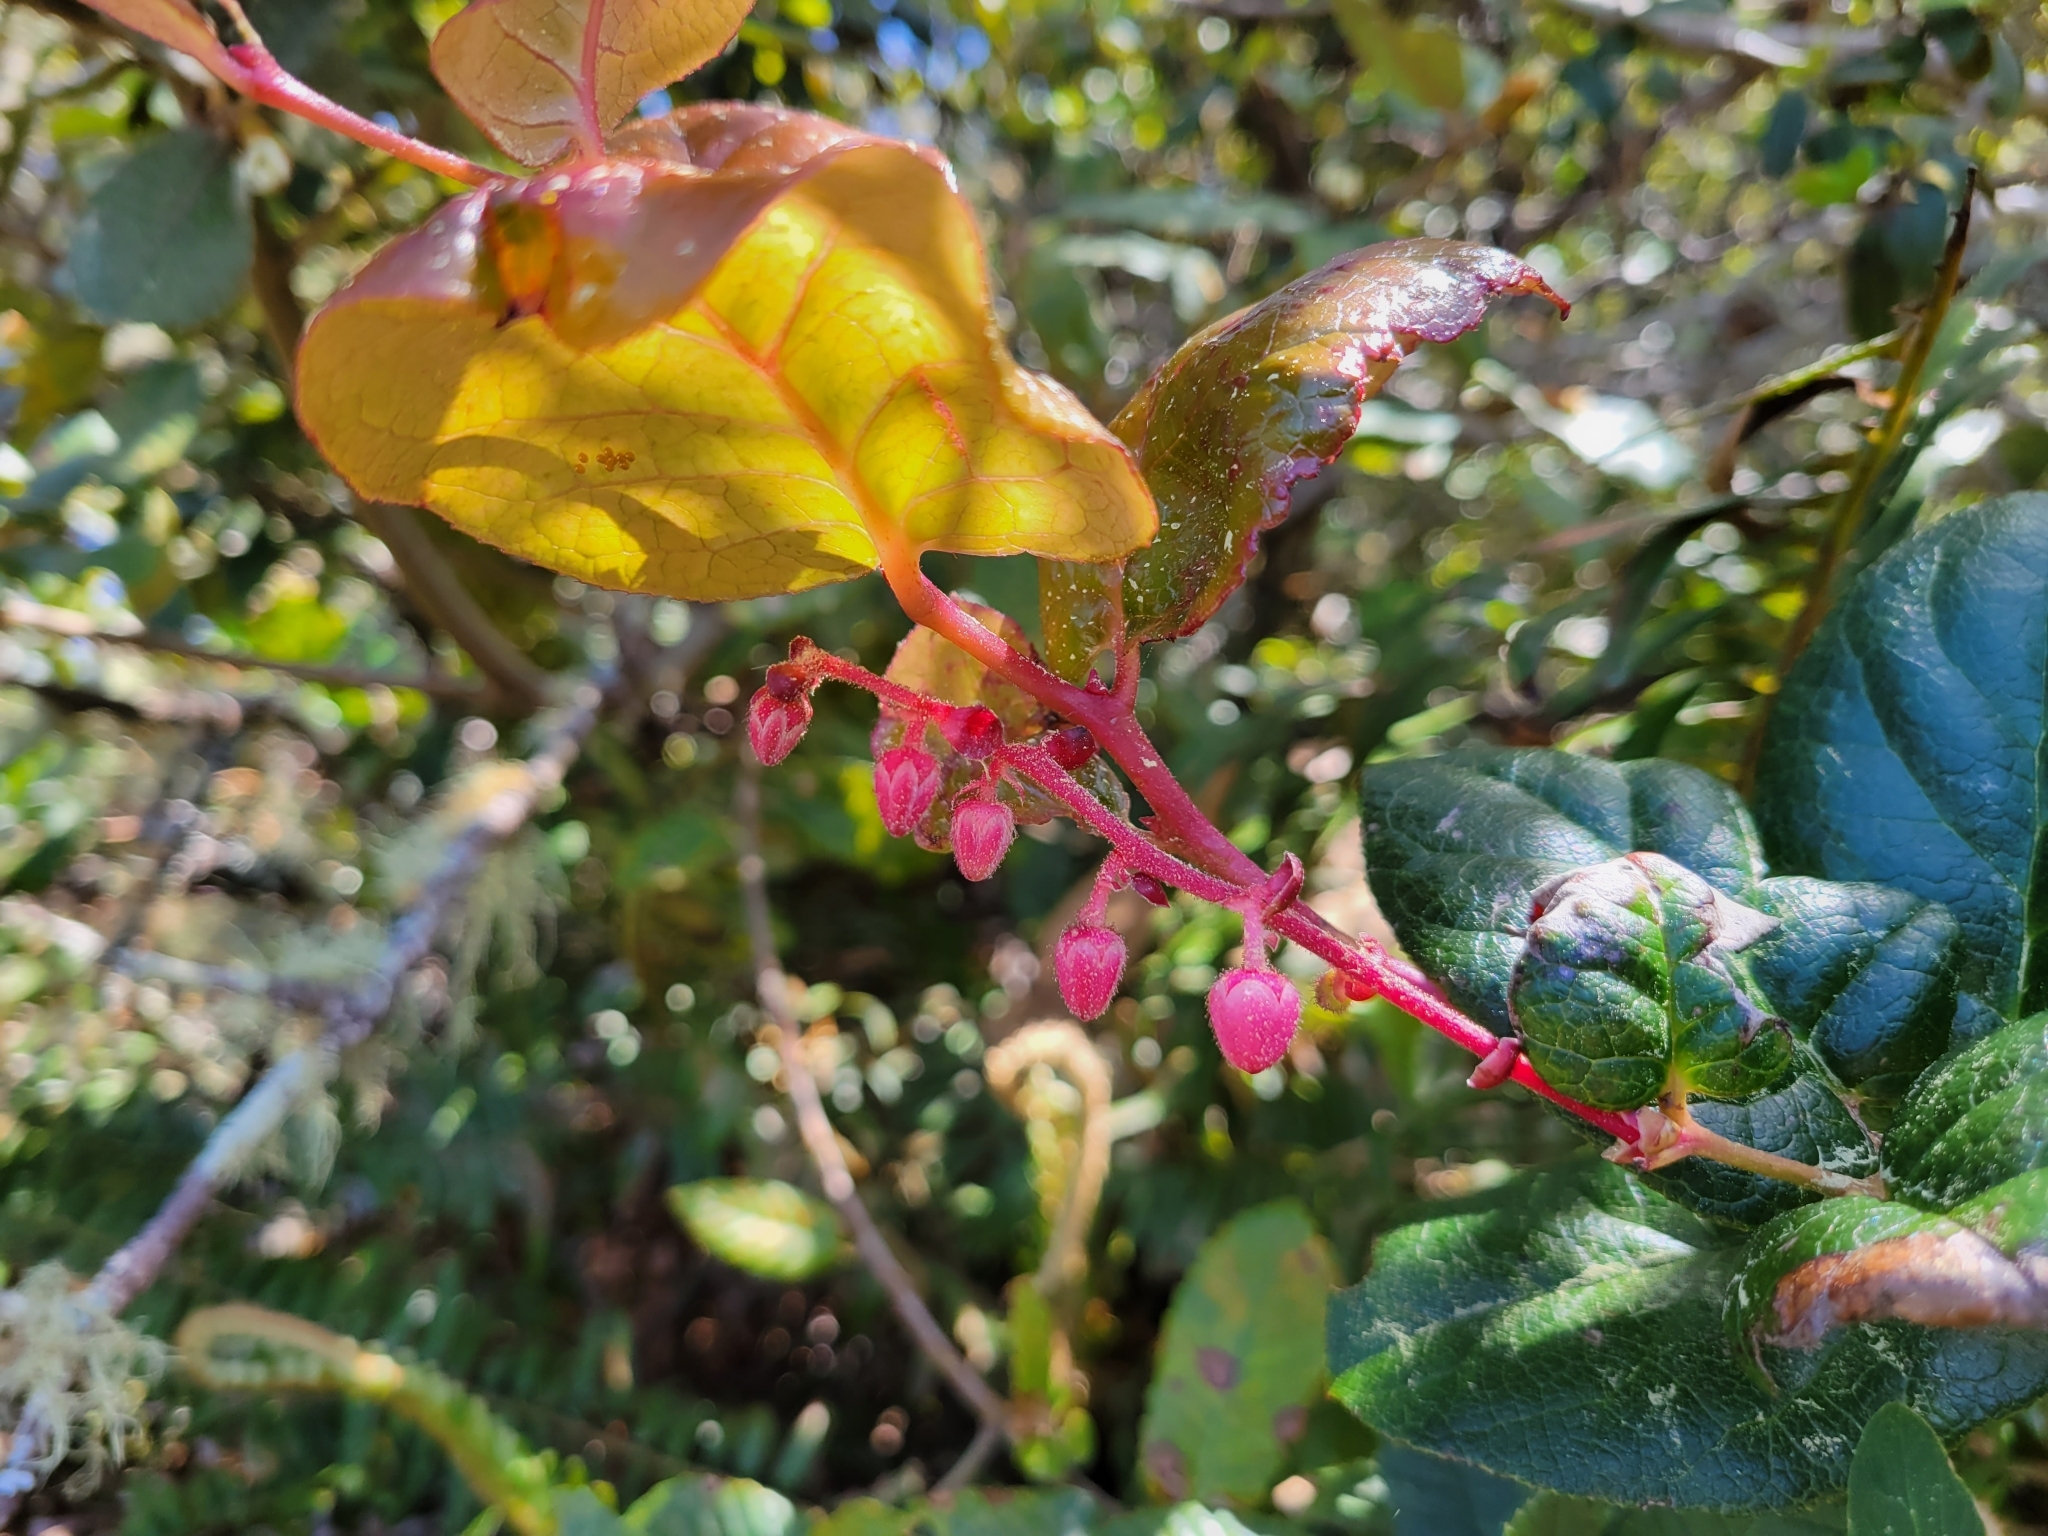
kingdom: Plantae
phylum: Tracheophyta
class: Magnoliopsida
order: Ericales
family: Ericaceae
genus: Gaultheria
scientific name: Gaultheria shallon
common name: Shallon
